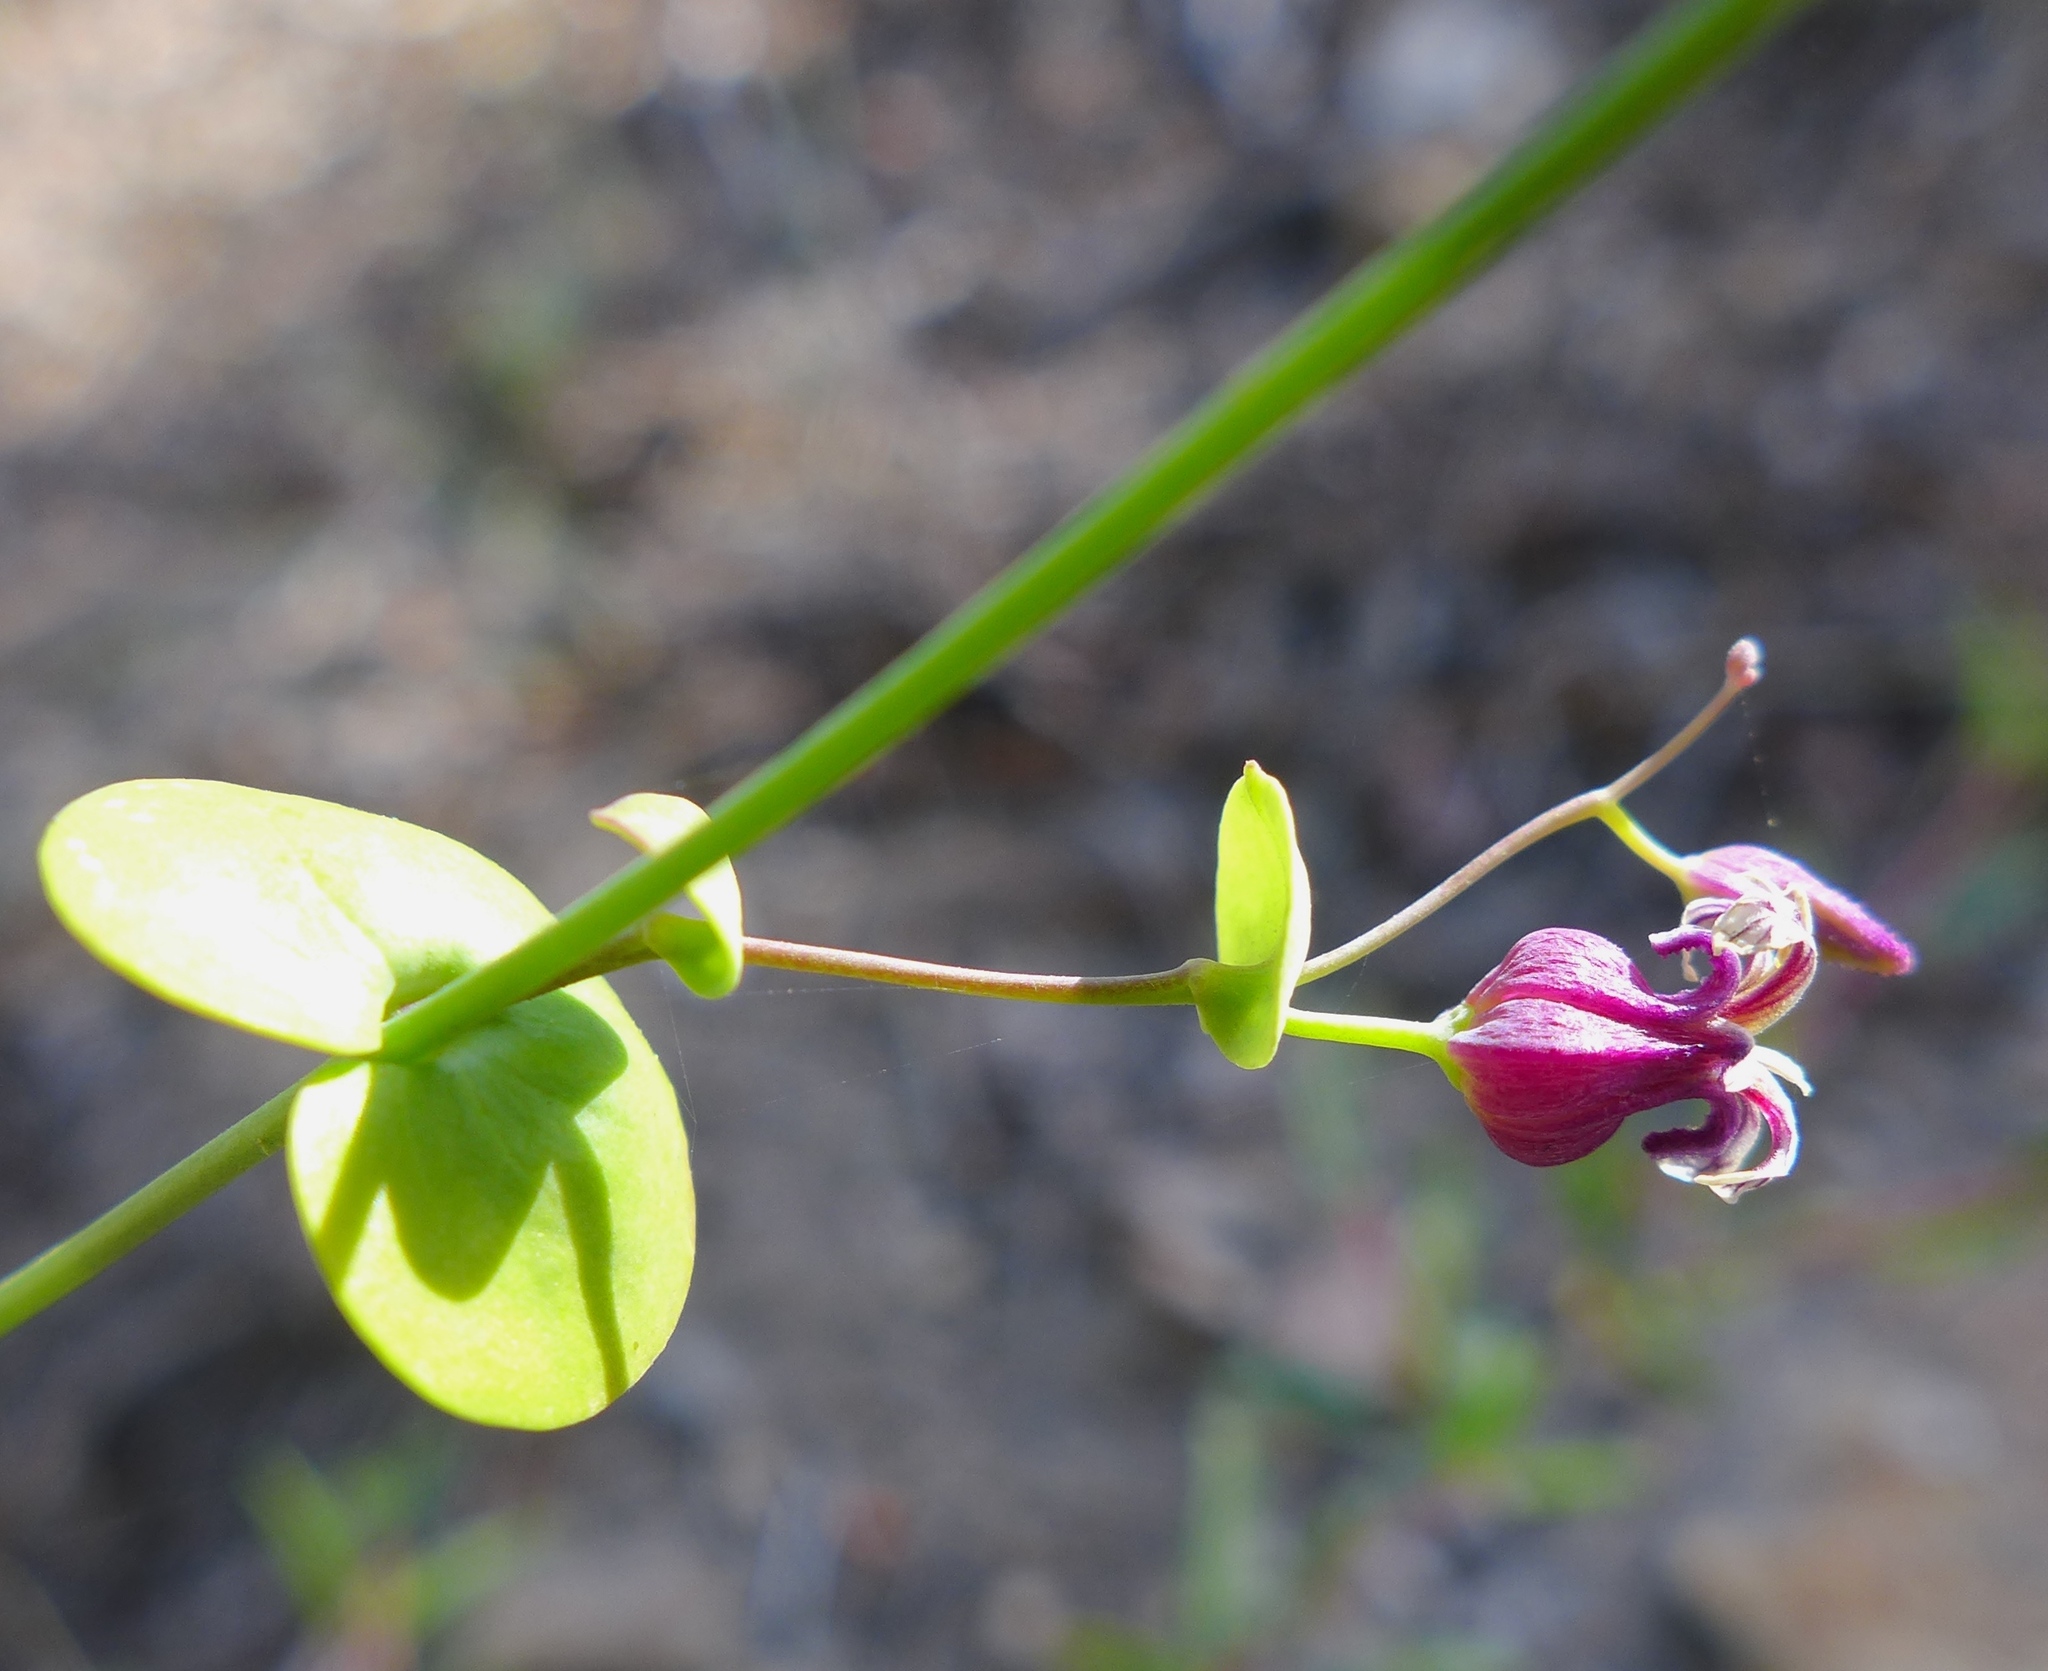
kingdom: Plantae
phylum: Tracheophyta
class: Magnoliopsida
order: Brassicales
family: Brassicaceae
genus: Streptanthus
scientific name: Streptanthus tortuosus
